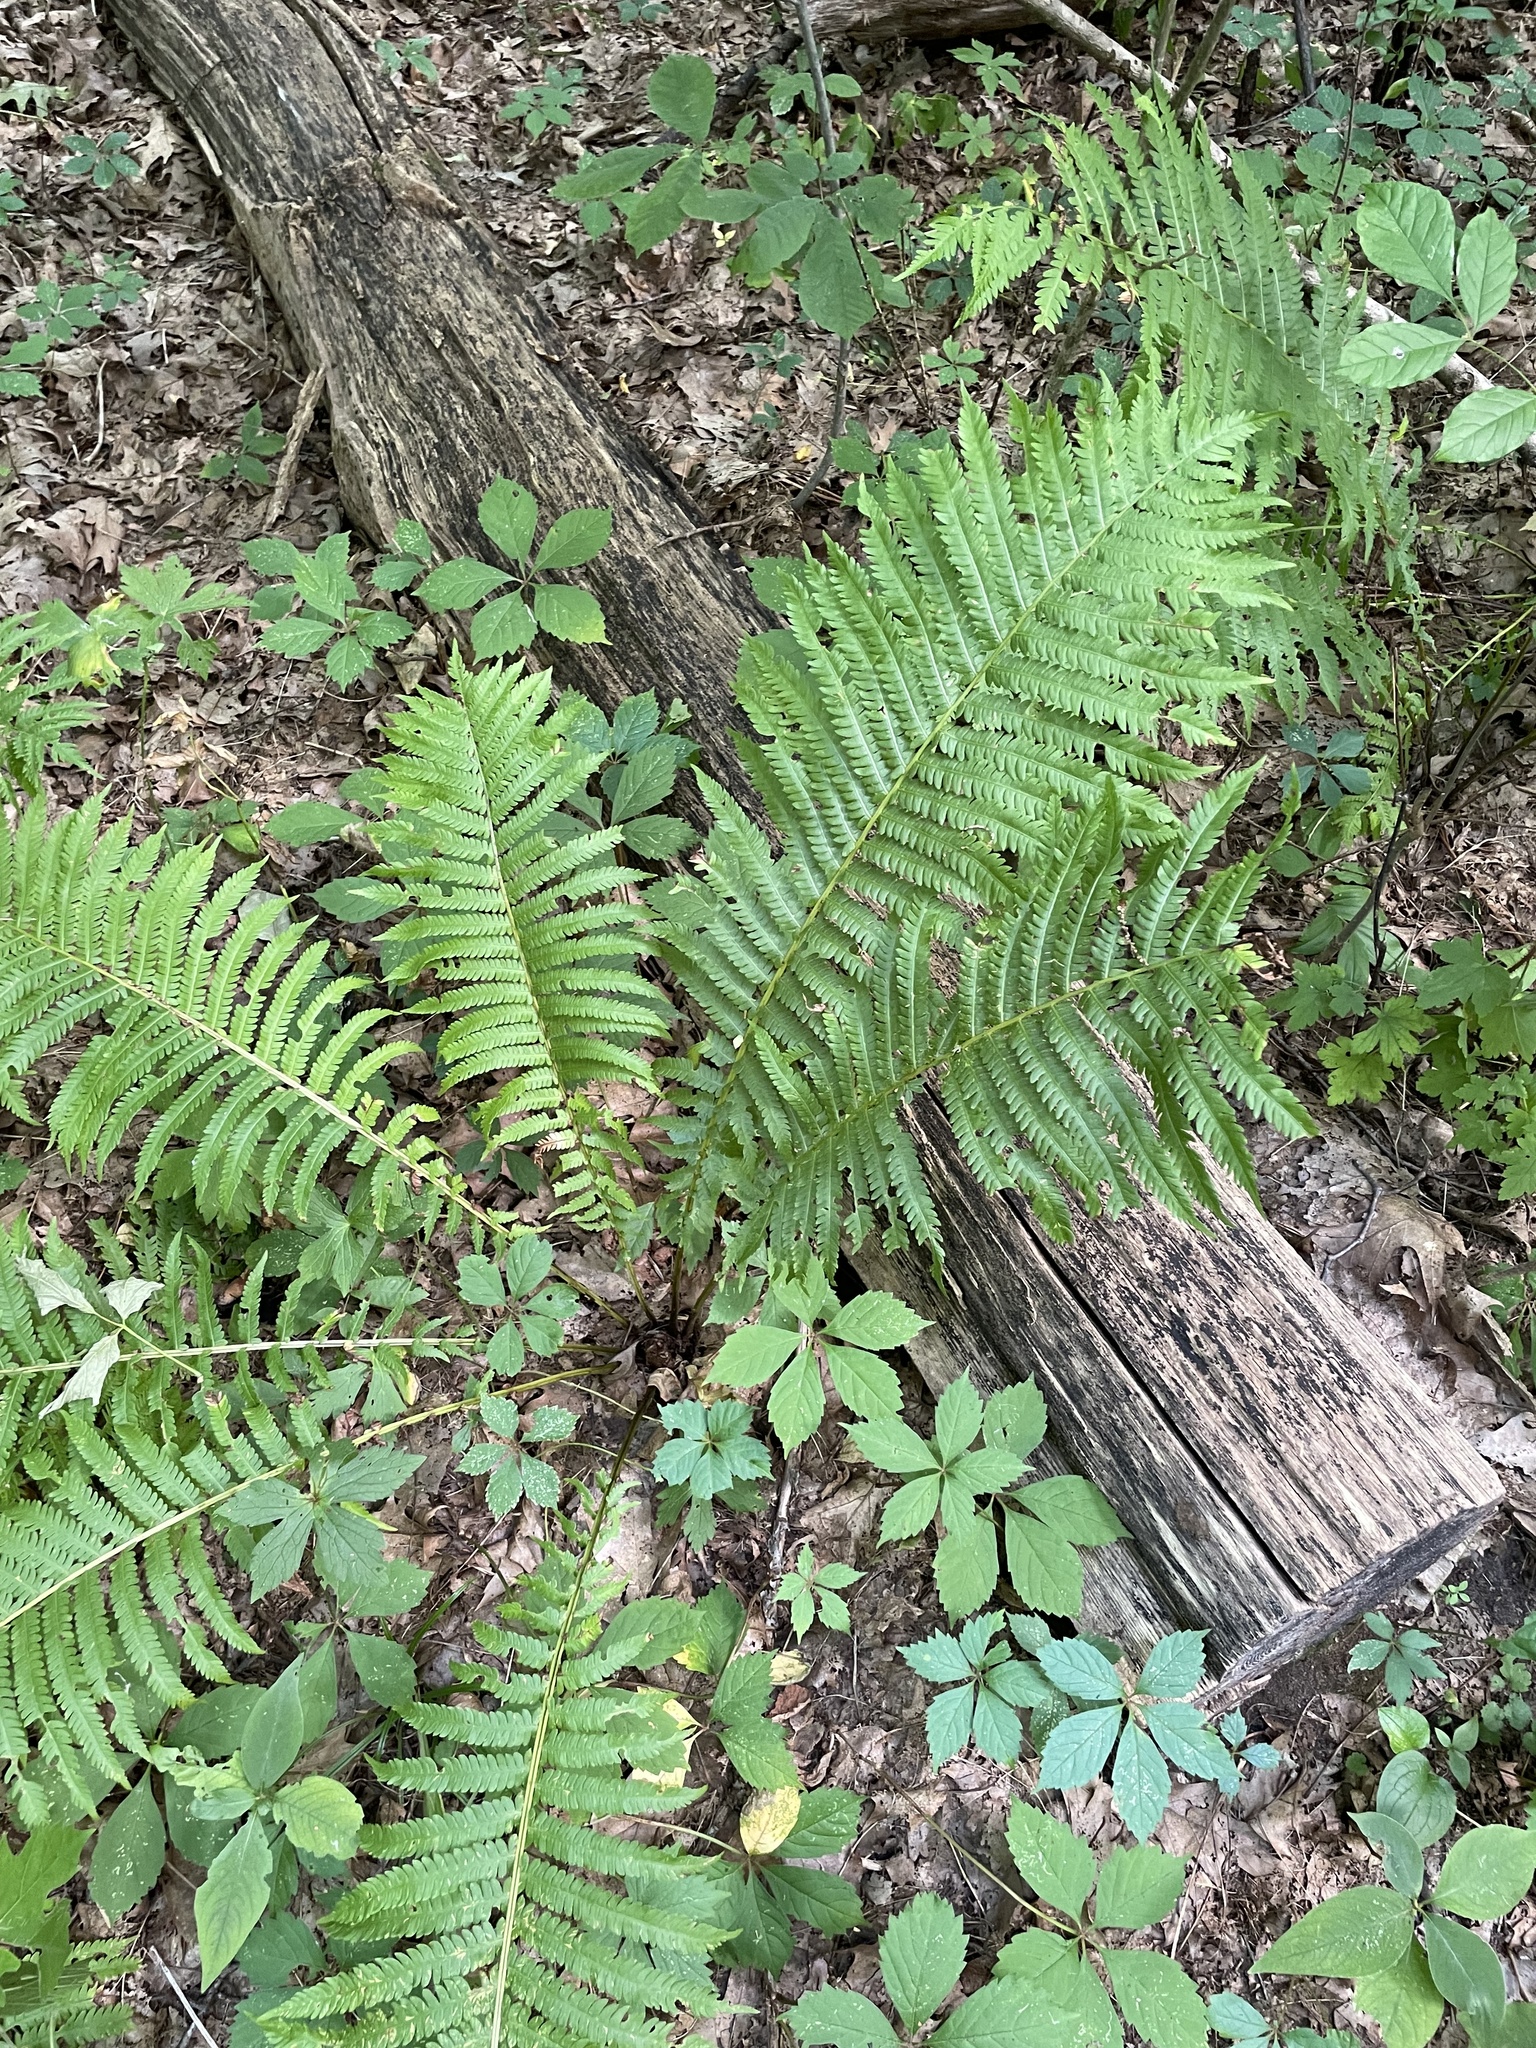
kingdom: Plantae
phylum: Tracheophyta
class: Polypodiopsida
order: Polypodiales
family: Onocleaceae
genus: Matteuccia
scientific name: Matteuccia struthiopteris
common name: Ostrich fern
